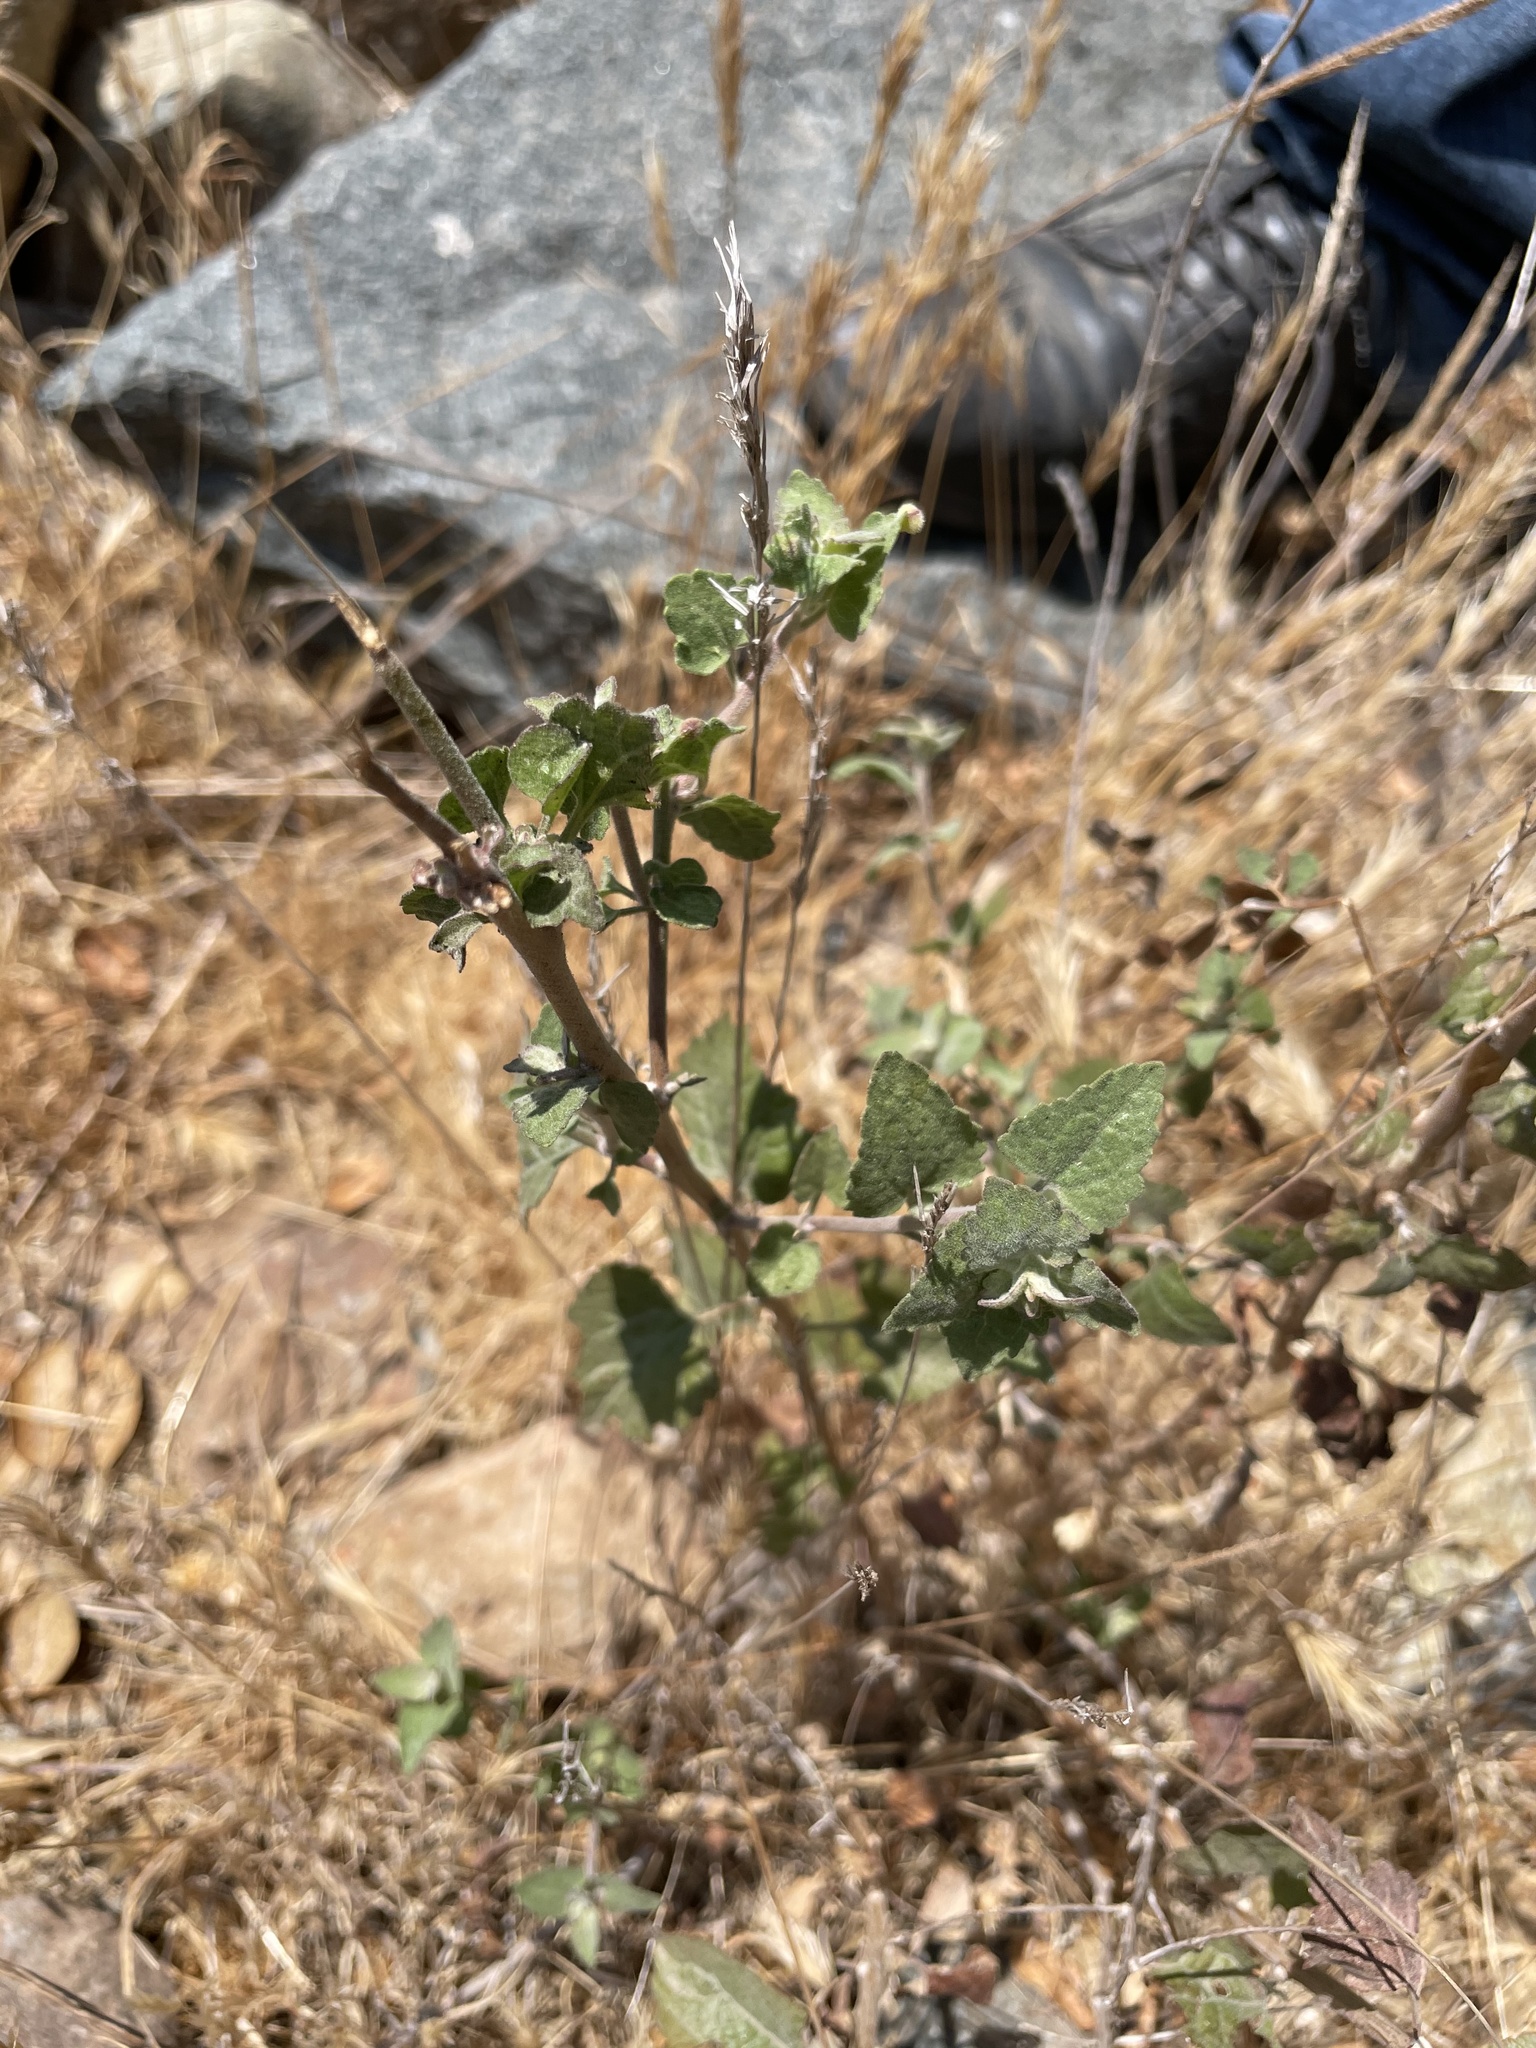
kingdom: Plantae
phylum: Tracheophyta
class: Magnoliopsida
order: Asterales
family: Asteraceae
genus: Brickellia
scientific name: Brickellia californica
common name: California brickellbush
